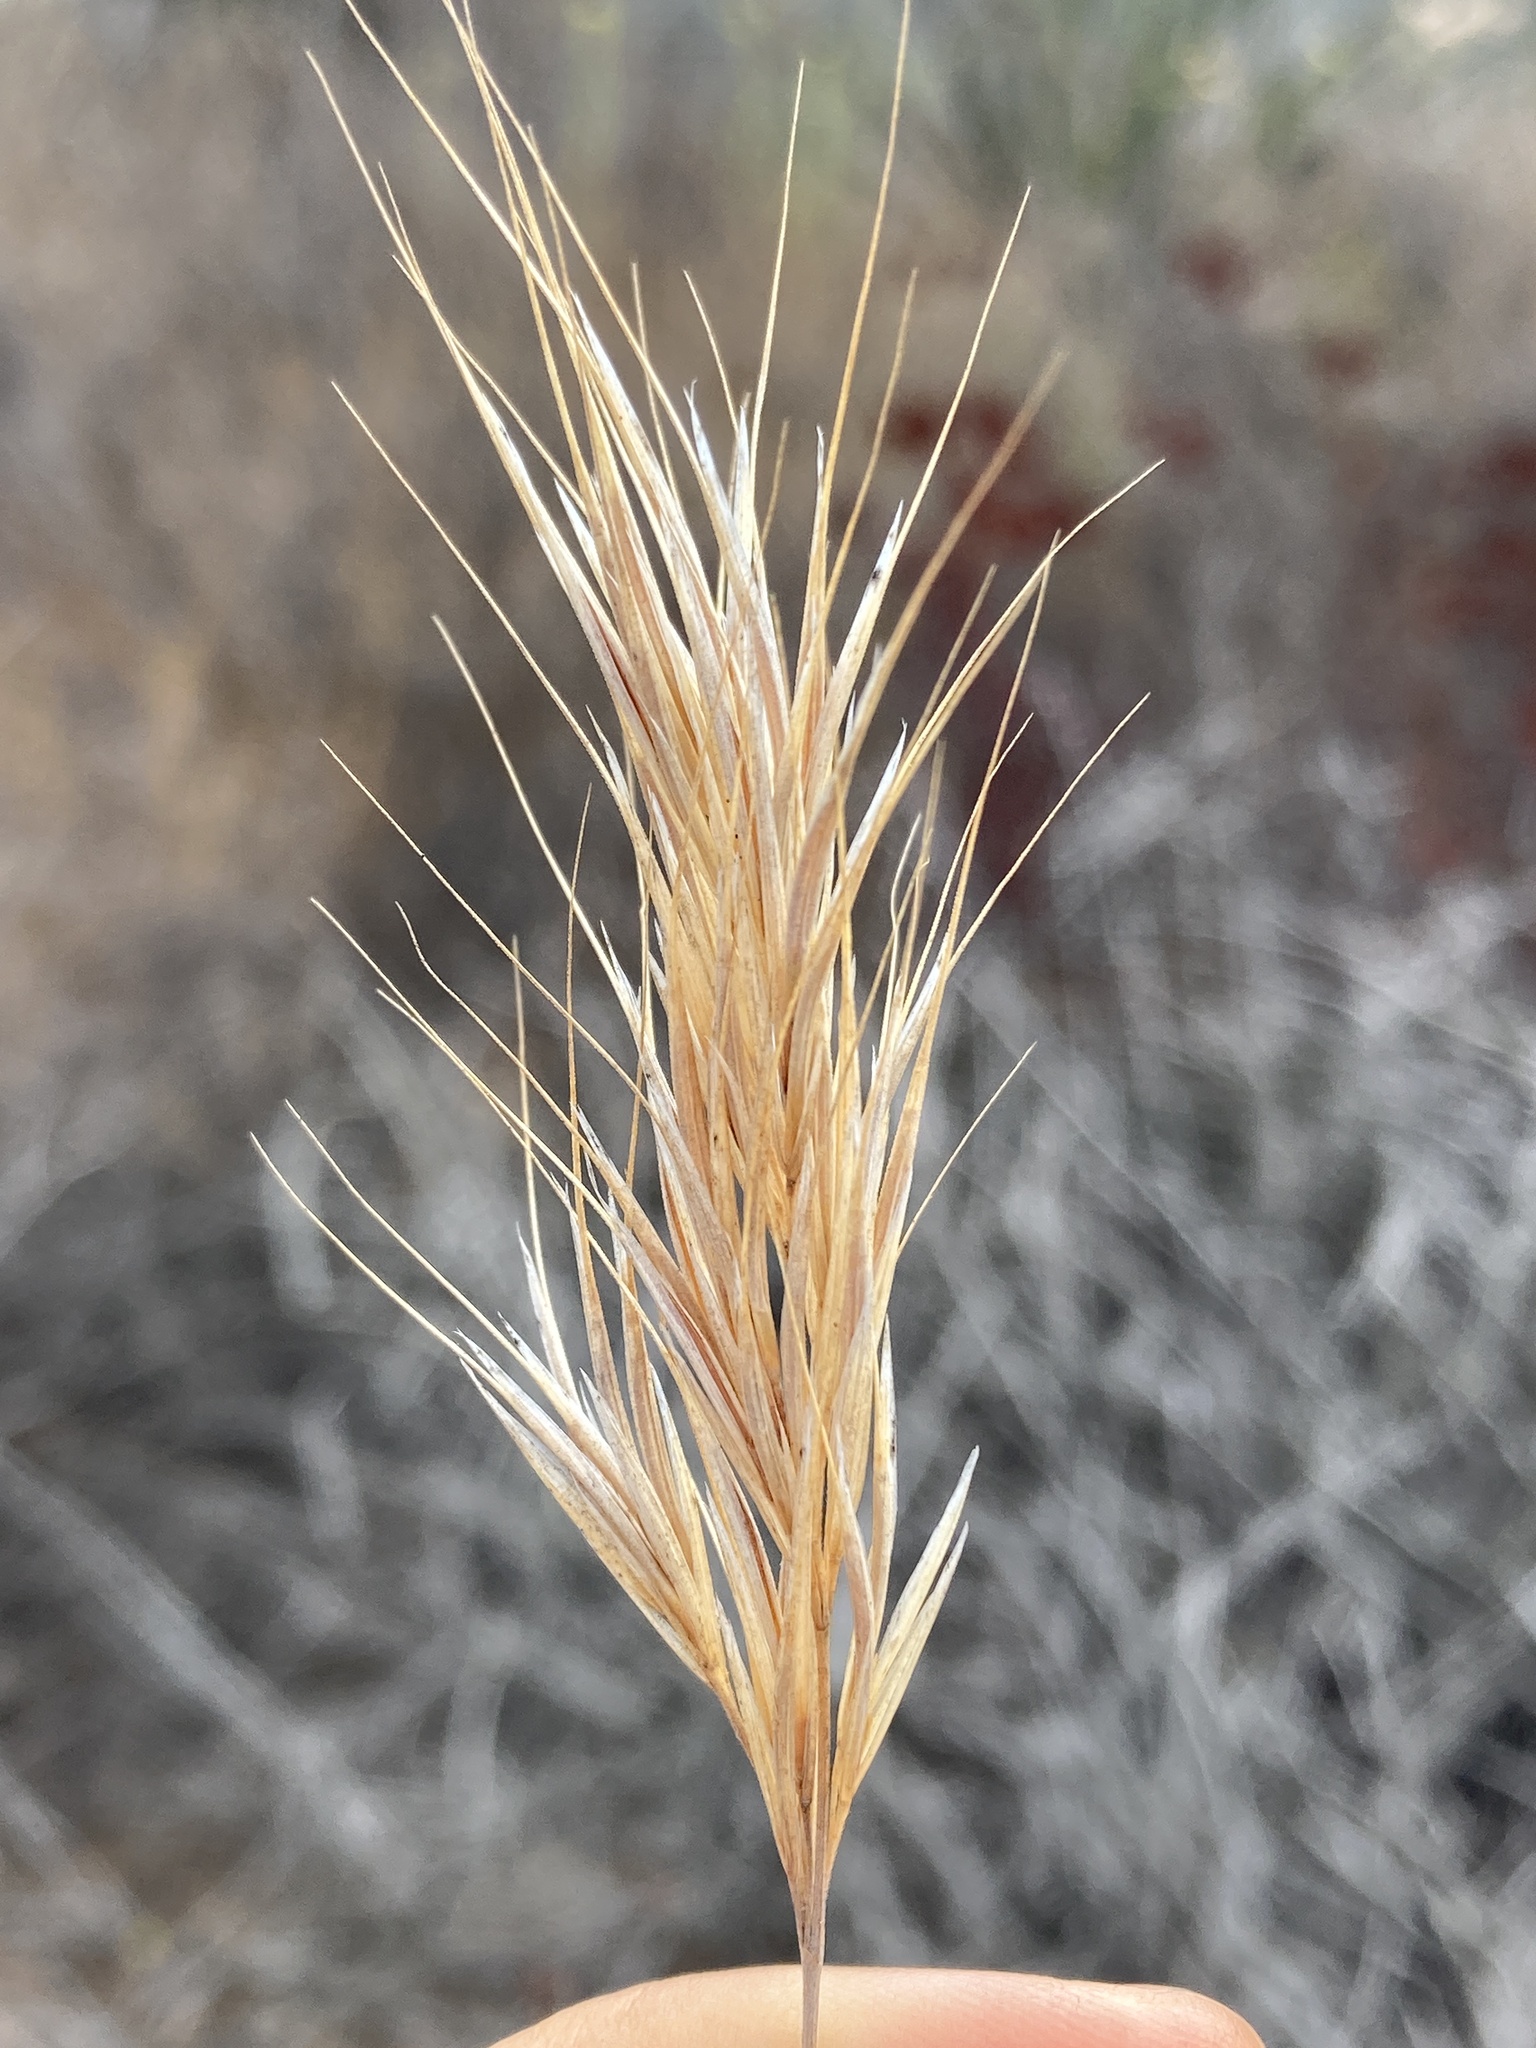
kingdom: Plantae
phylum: Tracheophyta
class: Liliopsida
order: Poales
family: Poaceae
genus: Bromus
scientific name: Bromus madritensis
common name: Compact brome
